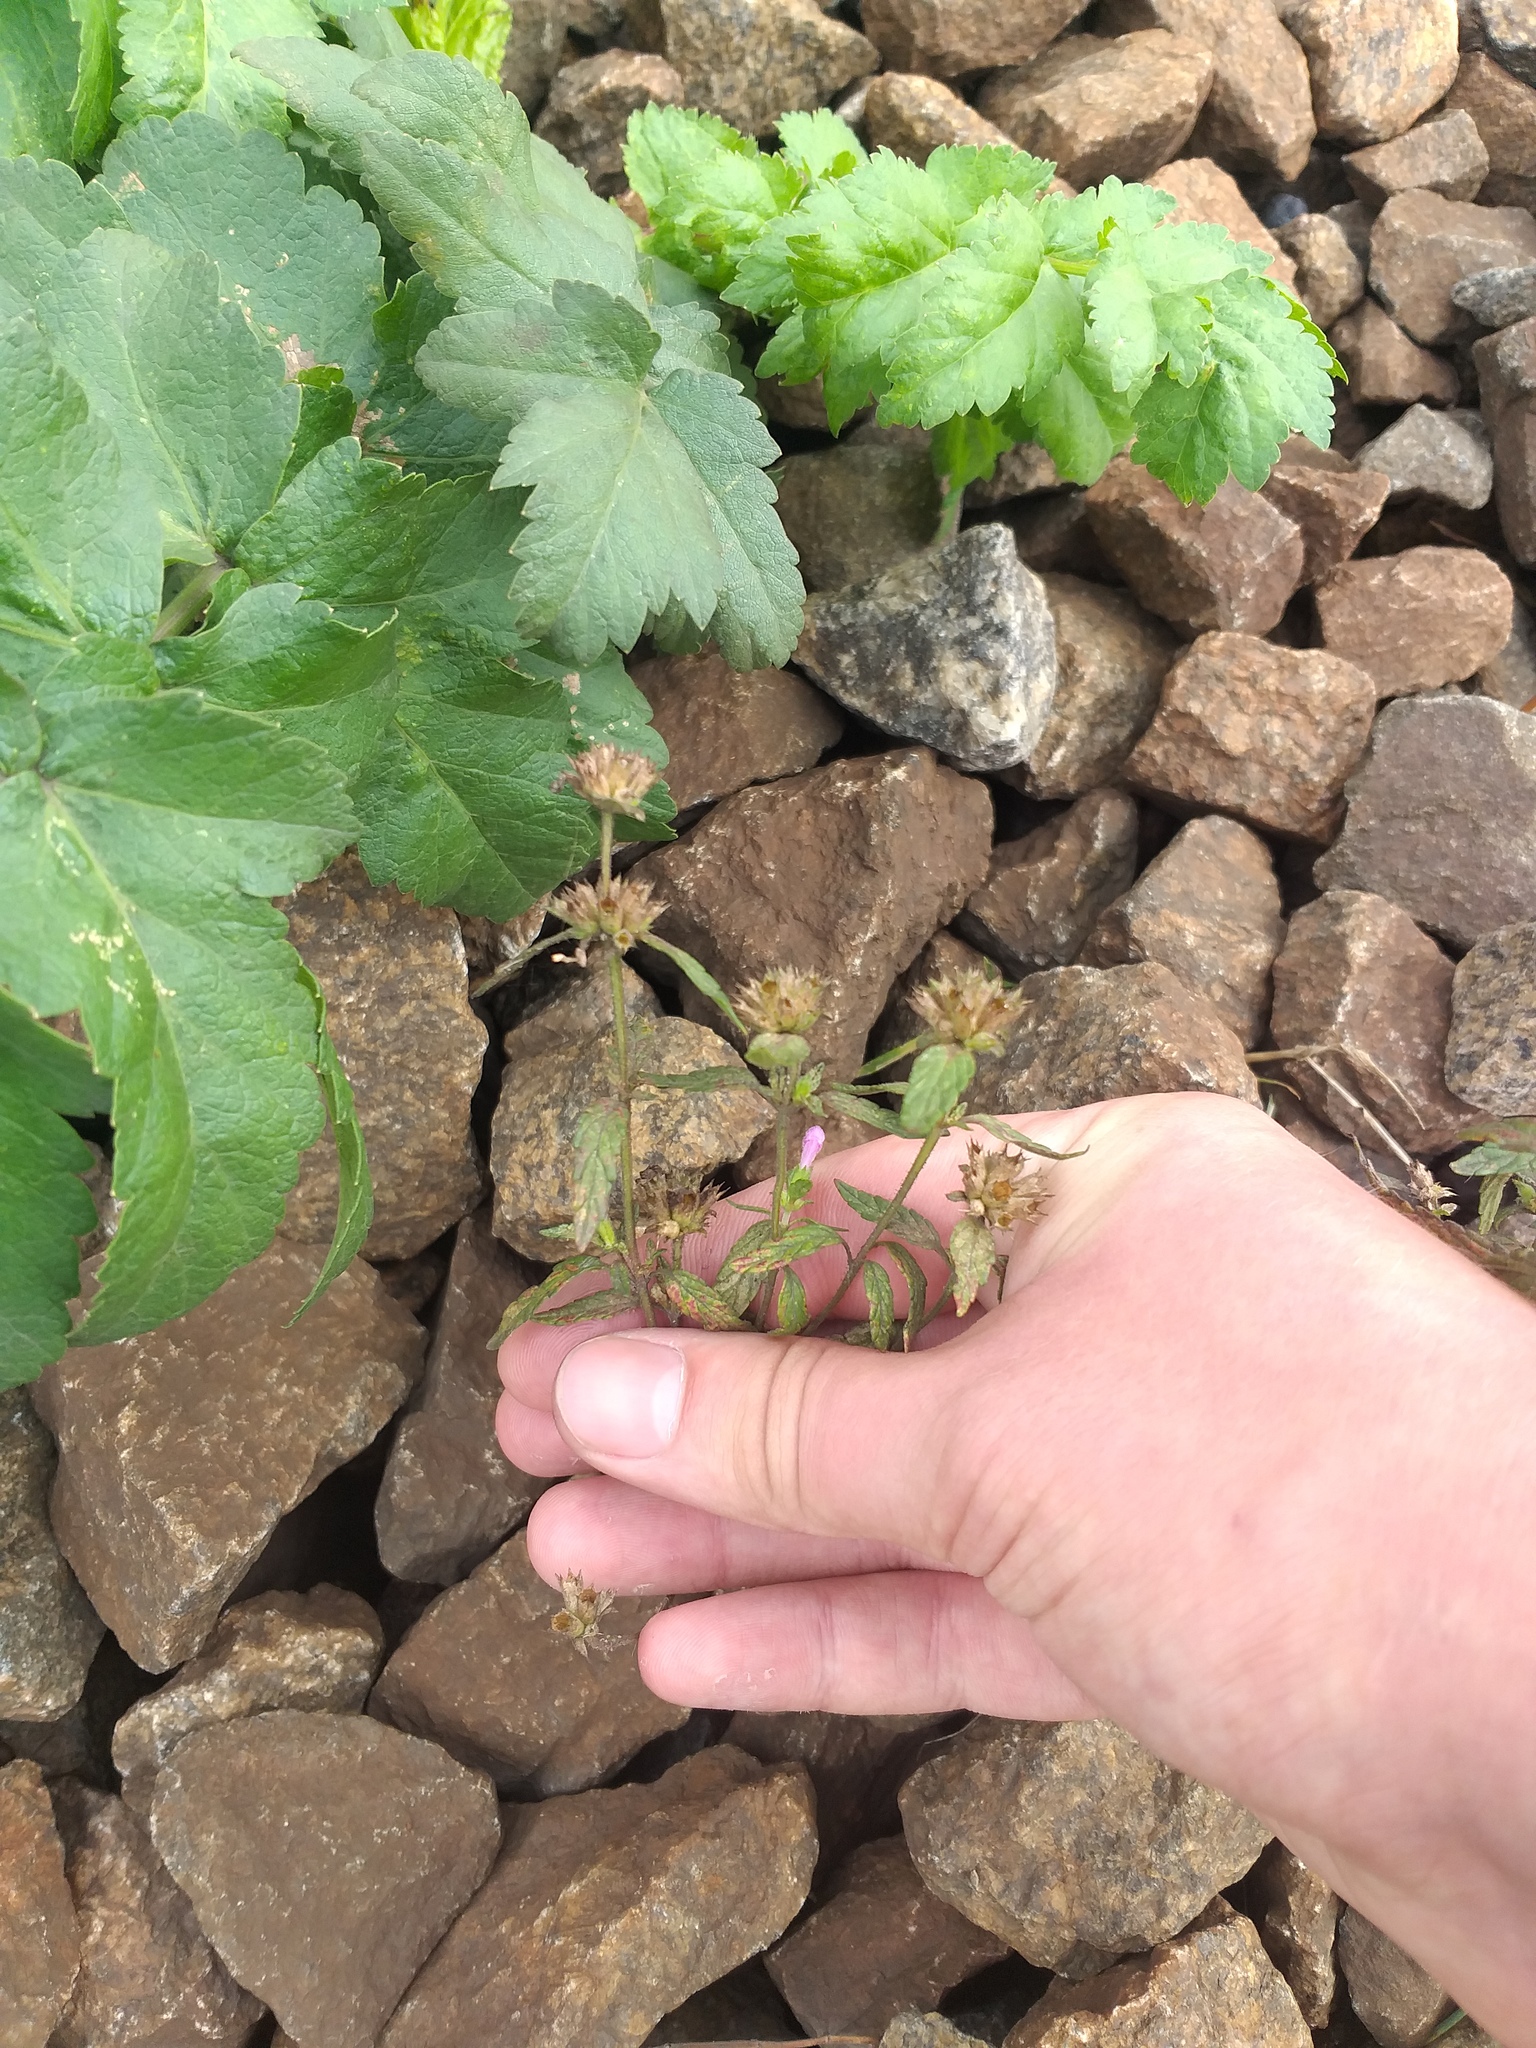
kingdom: Plantae
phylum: Tracheophyta
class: Magnoliopsida
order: Lamiales
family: Lamiaceae
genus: Galeopsis
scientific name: Galeopsis ladanum
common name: Broad-leaved hemp-nettle
